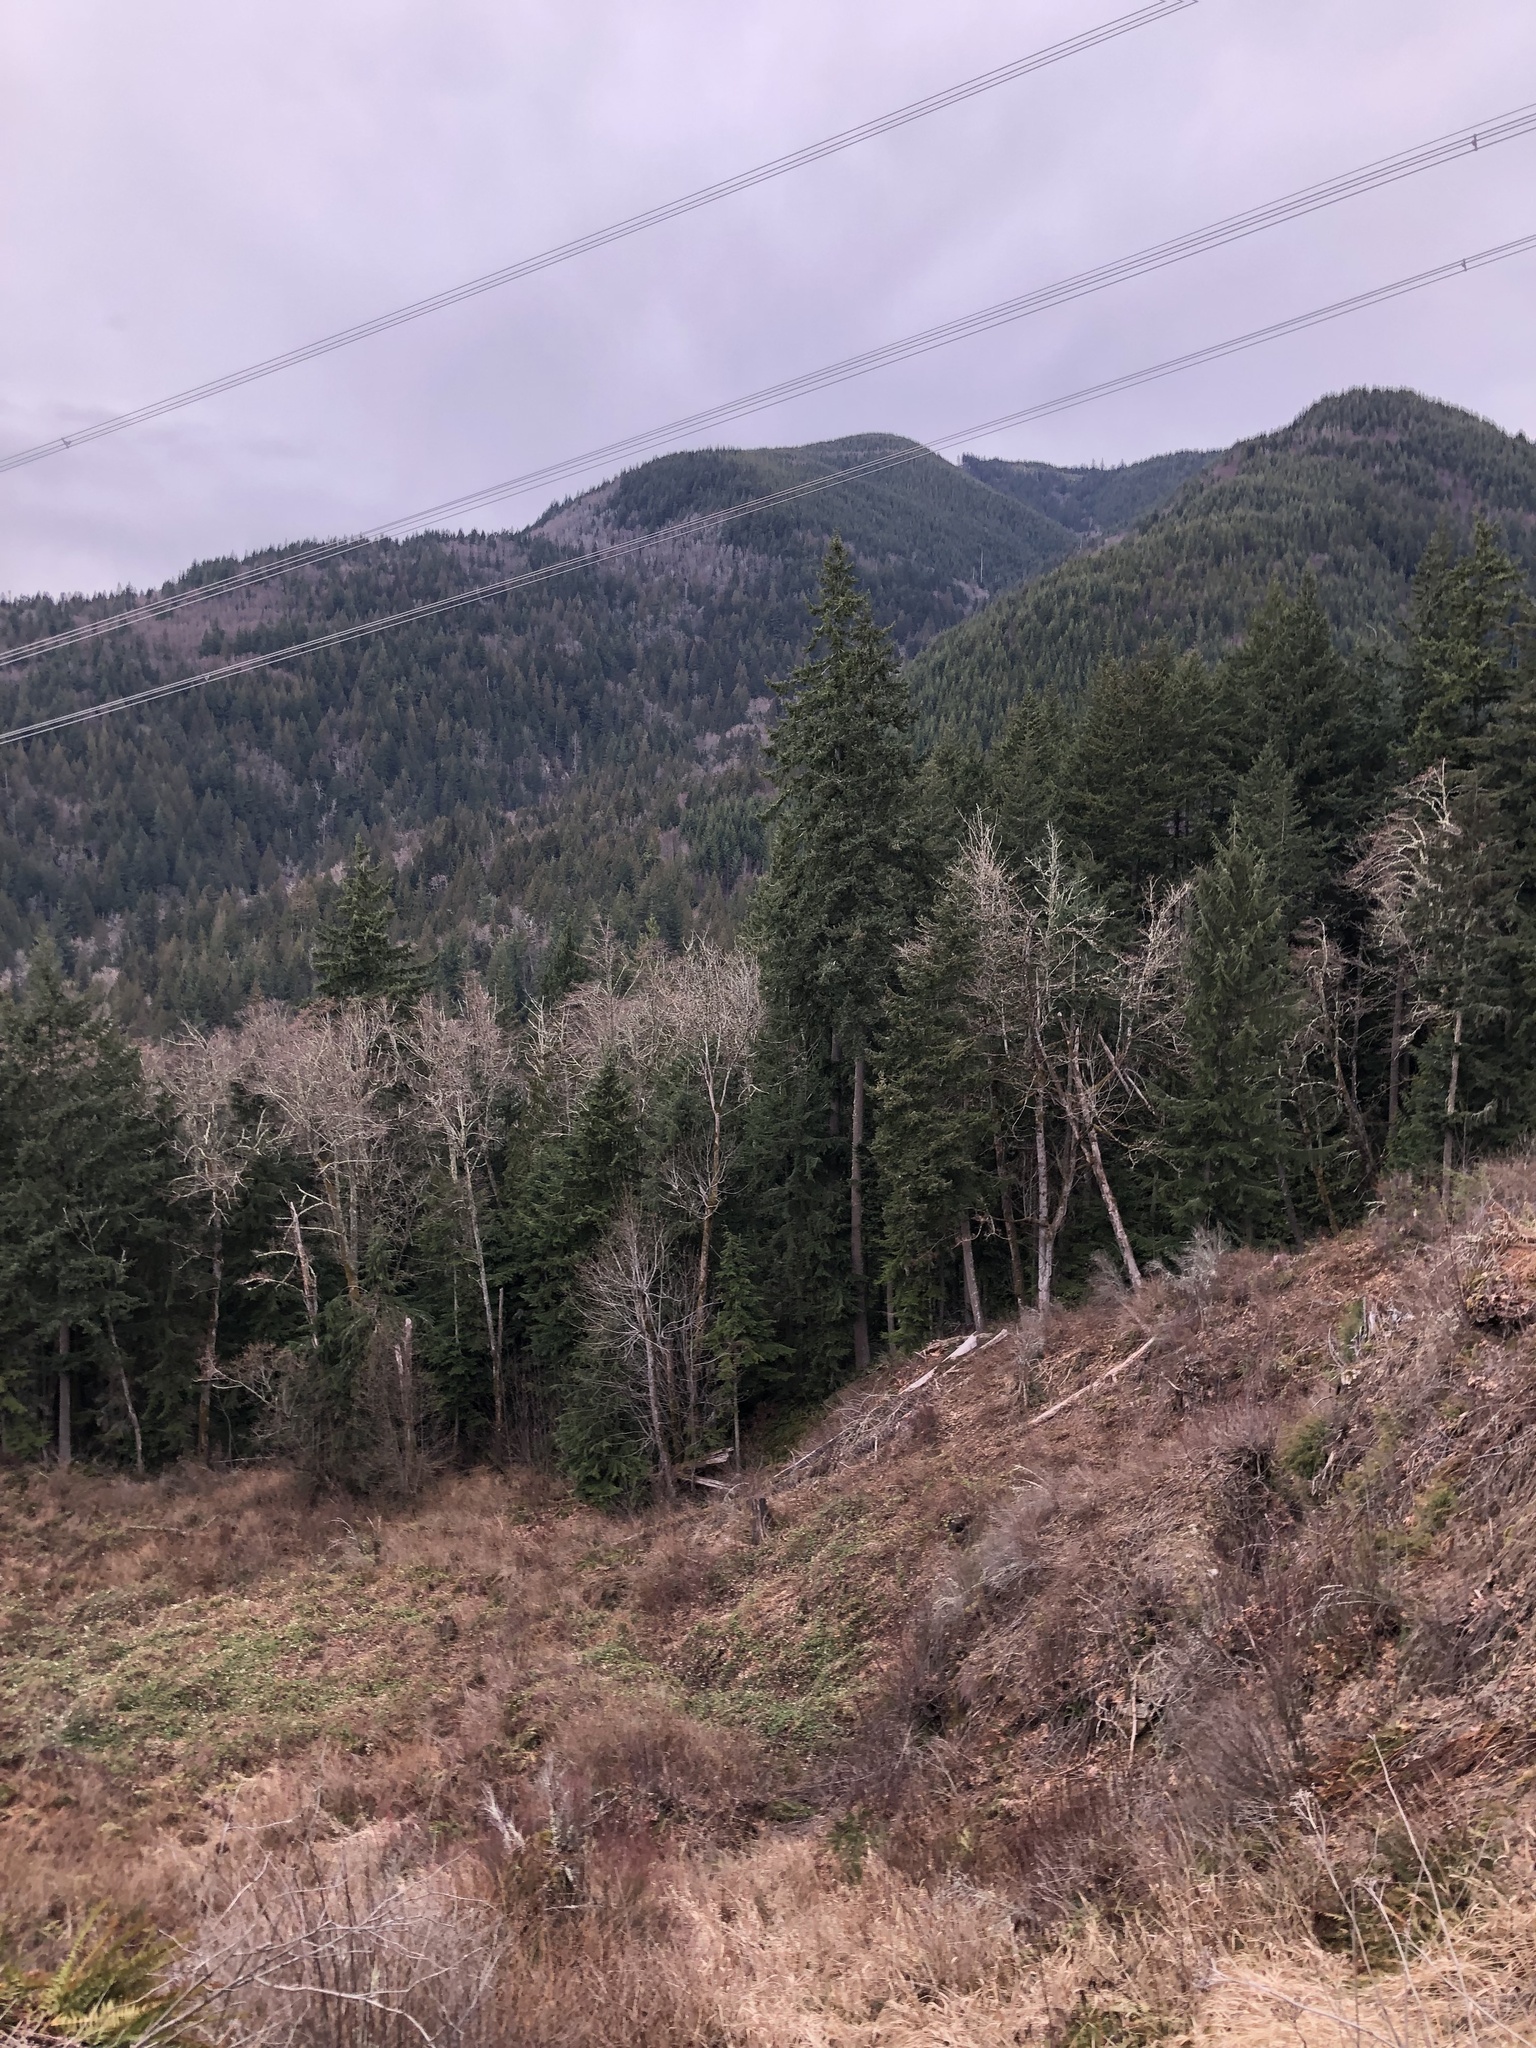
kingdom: Plantae
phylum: Tracheophyta
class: Pinopsida
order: Pinales
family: Pinaceae
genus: Pseudotsuga
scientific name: Pseudotsuga menziesii
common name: Douglas fir
